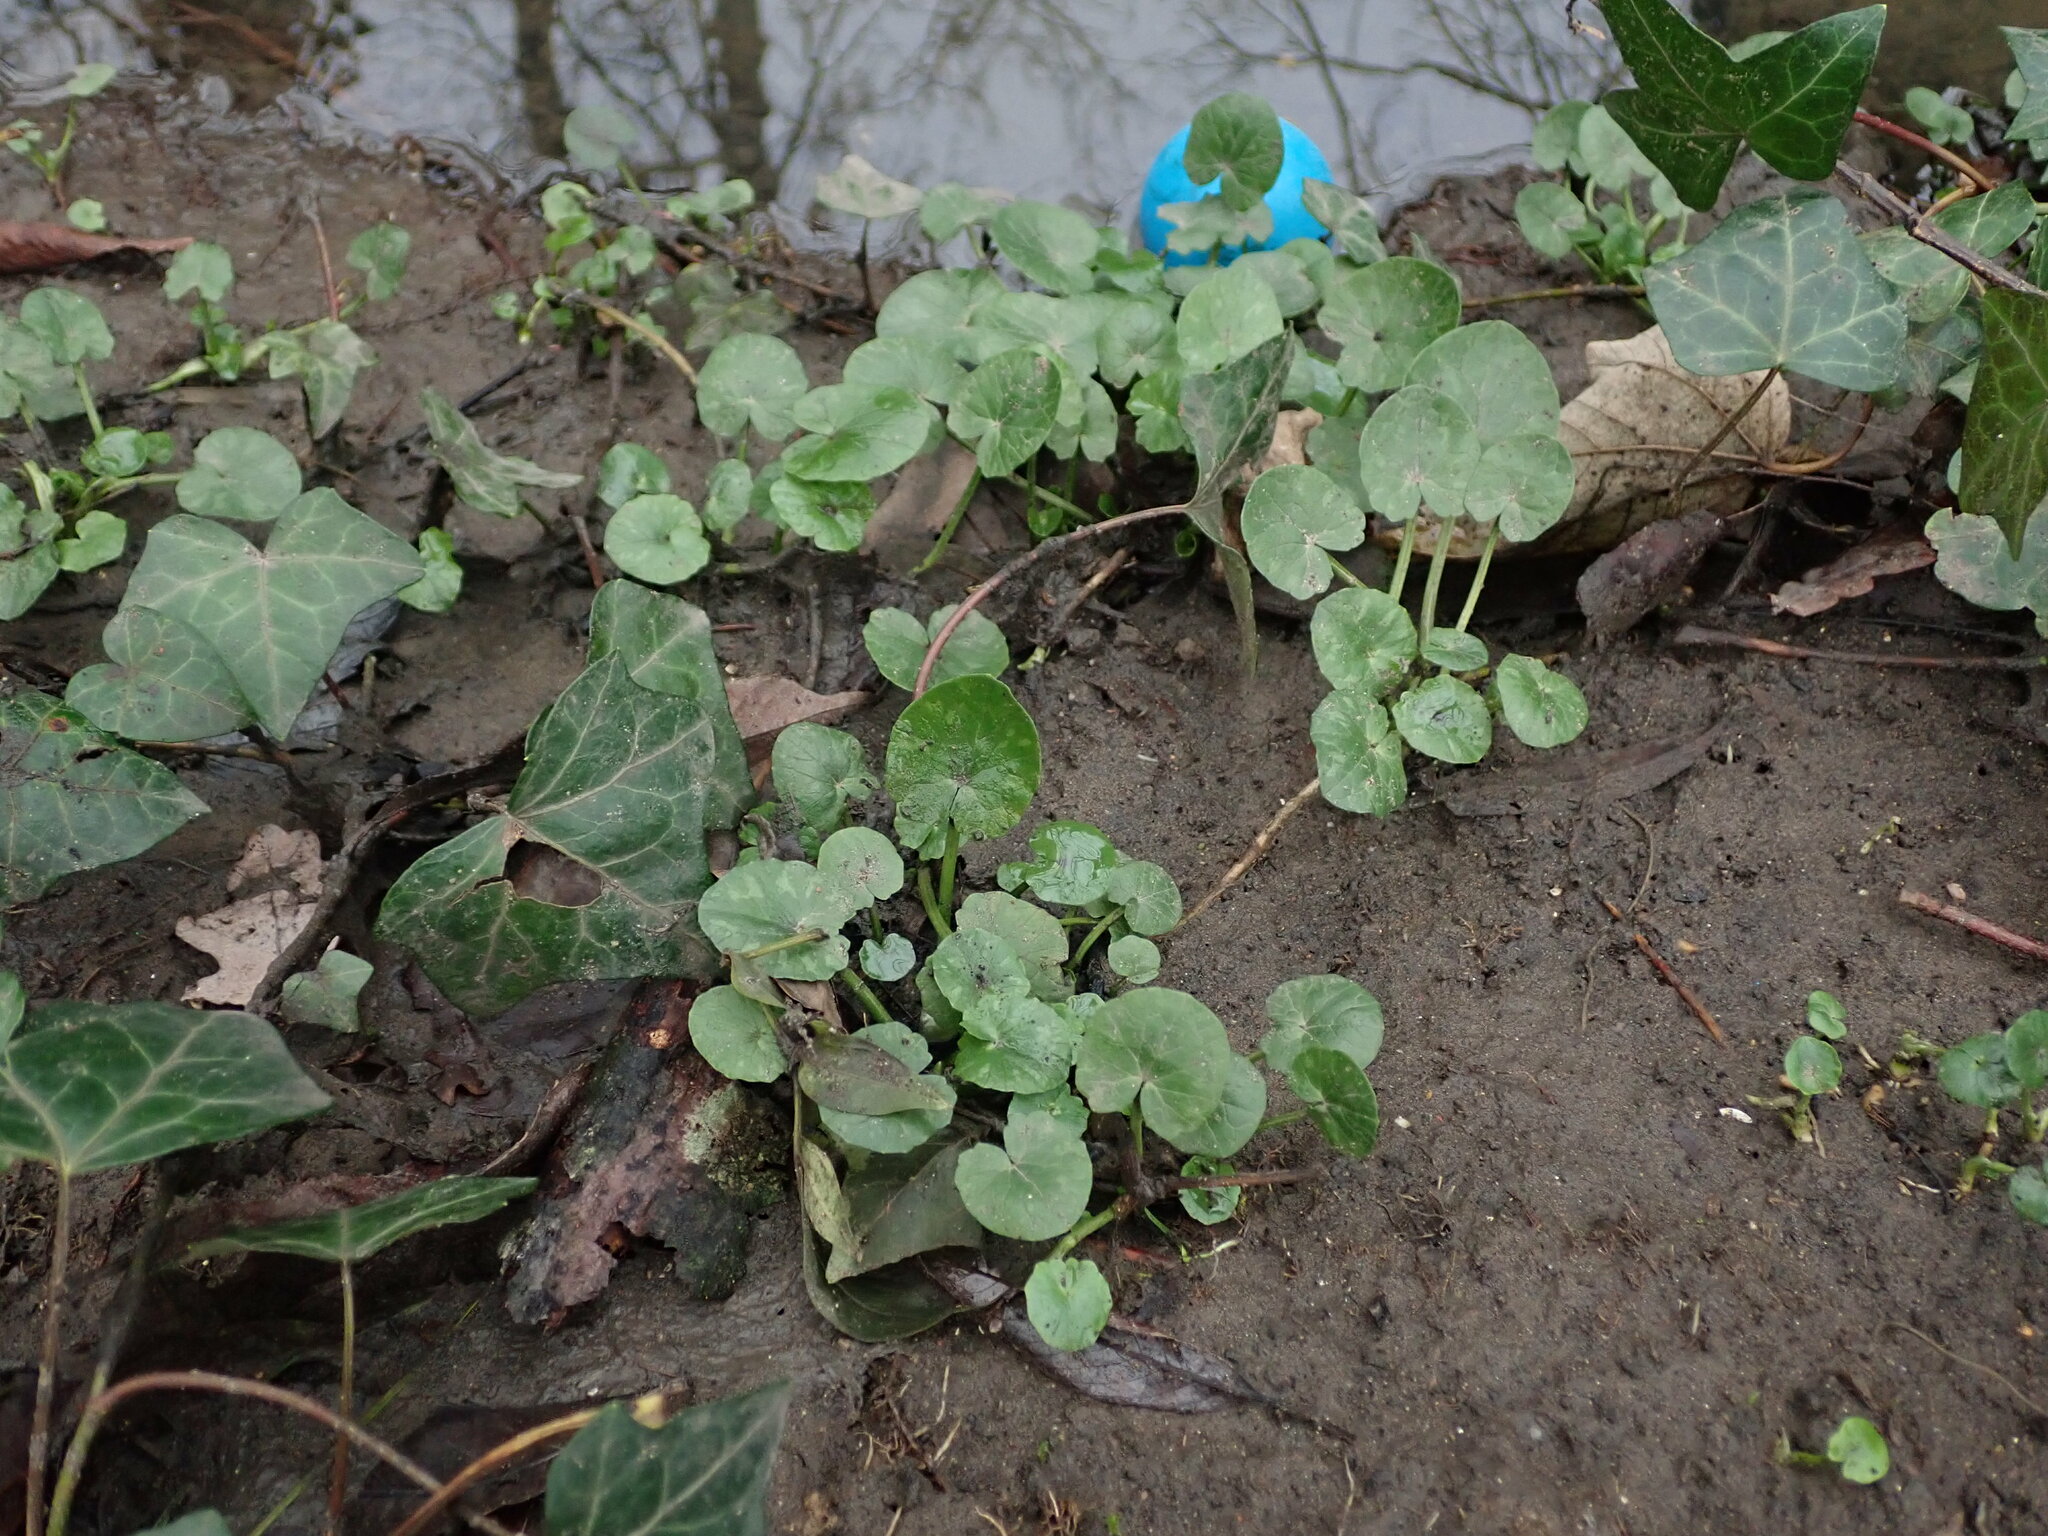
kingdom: Plantae
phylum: Tracheophyta
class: Magnoliopsida
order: Ranunculales
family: Ranunculaceae
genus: Ficaria
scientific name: Ficaria verna
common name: Lesser celandine
